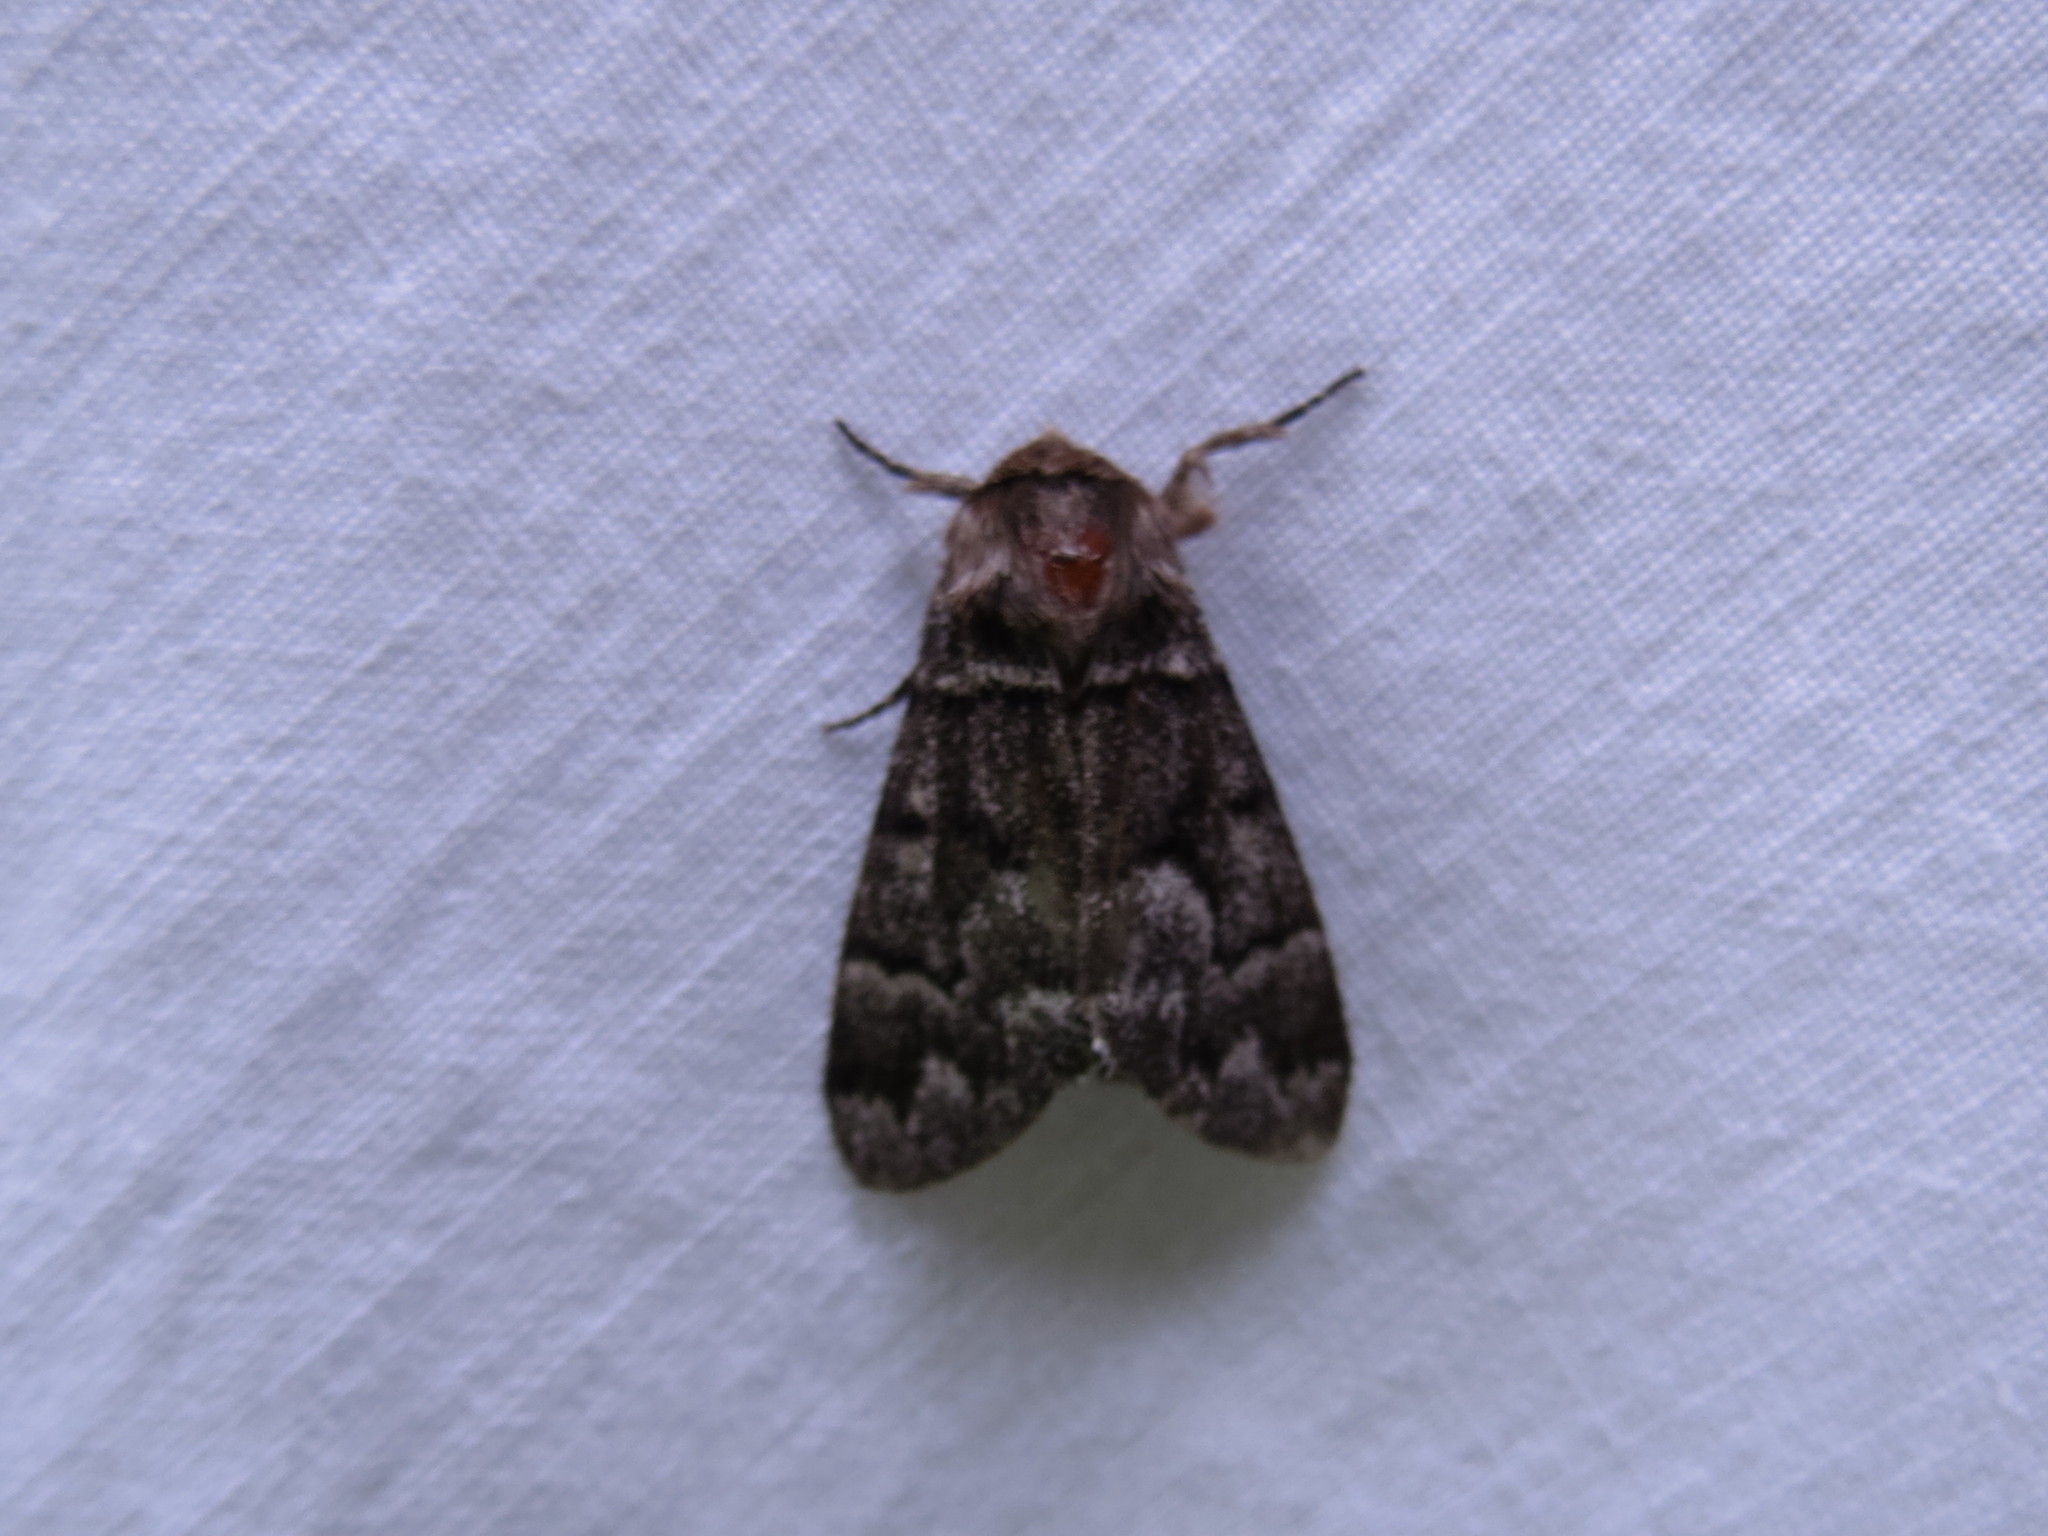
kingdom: Animalia
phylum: Arthropoda
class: Insecta
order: Lepidoptera
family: Noctuidae
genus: Panthea
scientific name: Panthea furcilla
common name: Eastern panthea moth
